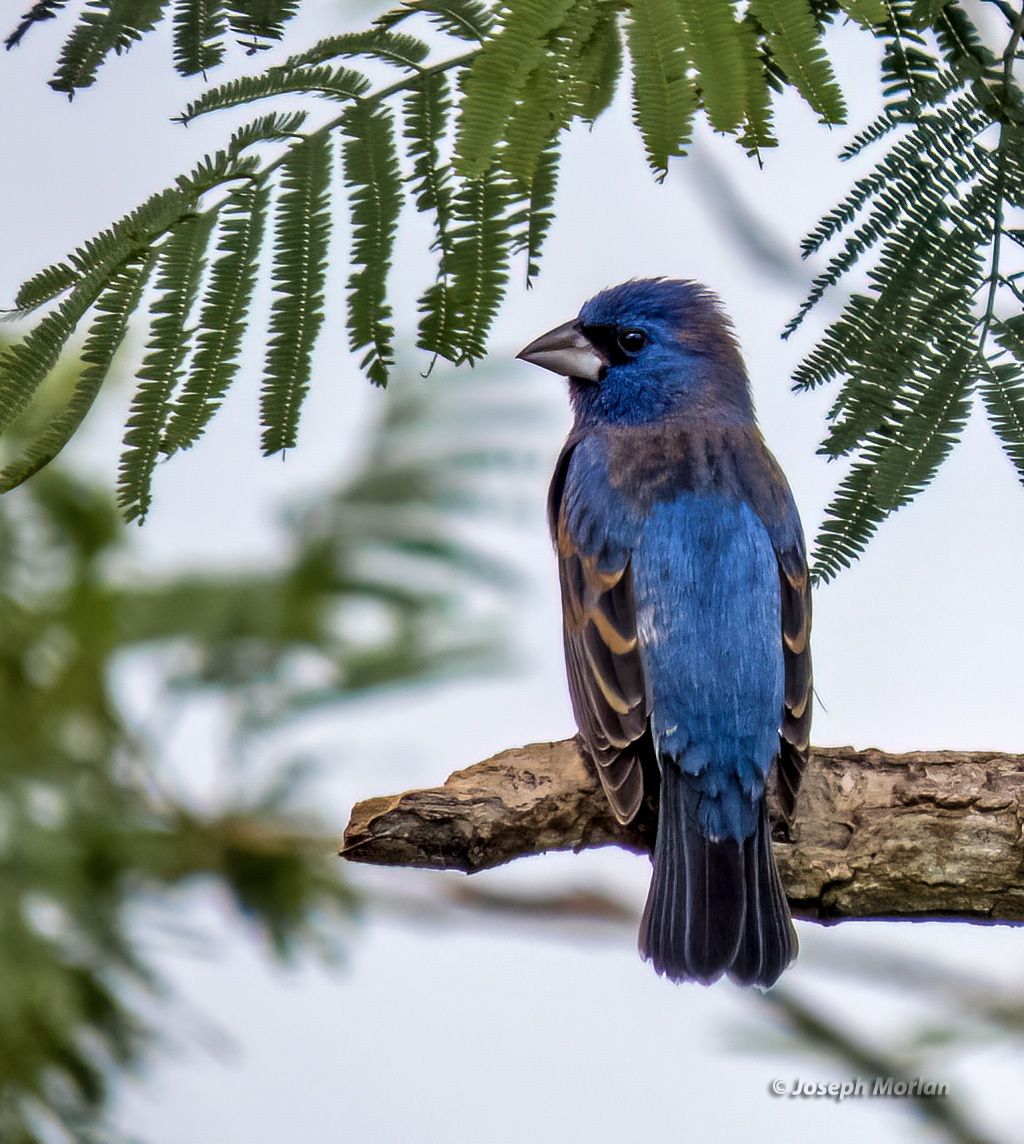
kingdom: Animalia
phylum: Chordata
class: Aves
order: Passeriformes
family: Cardinalidae
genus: Passerina
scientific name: Passerina caerulea
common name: Blue grosbeak
